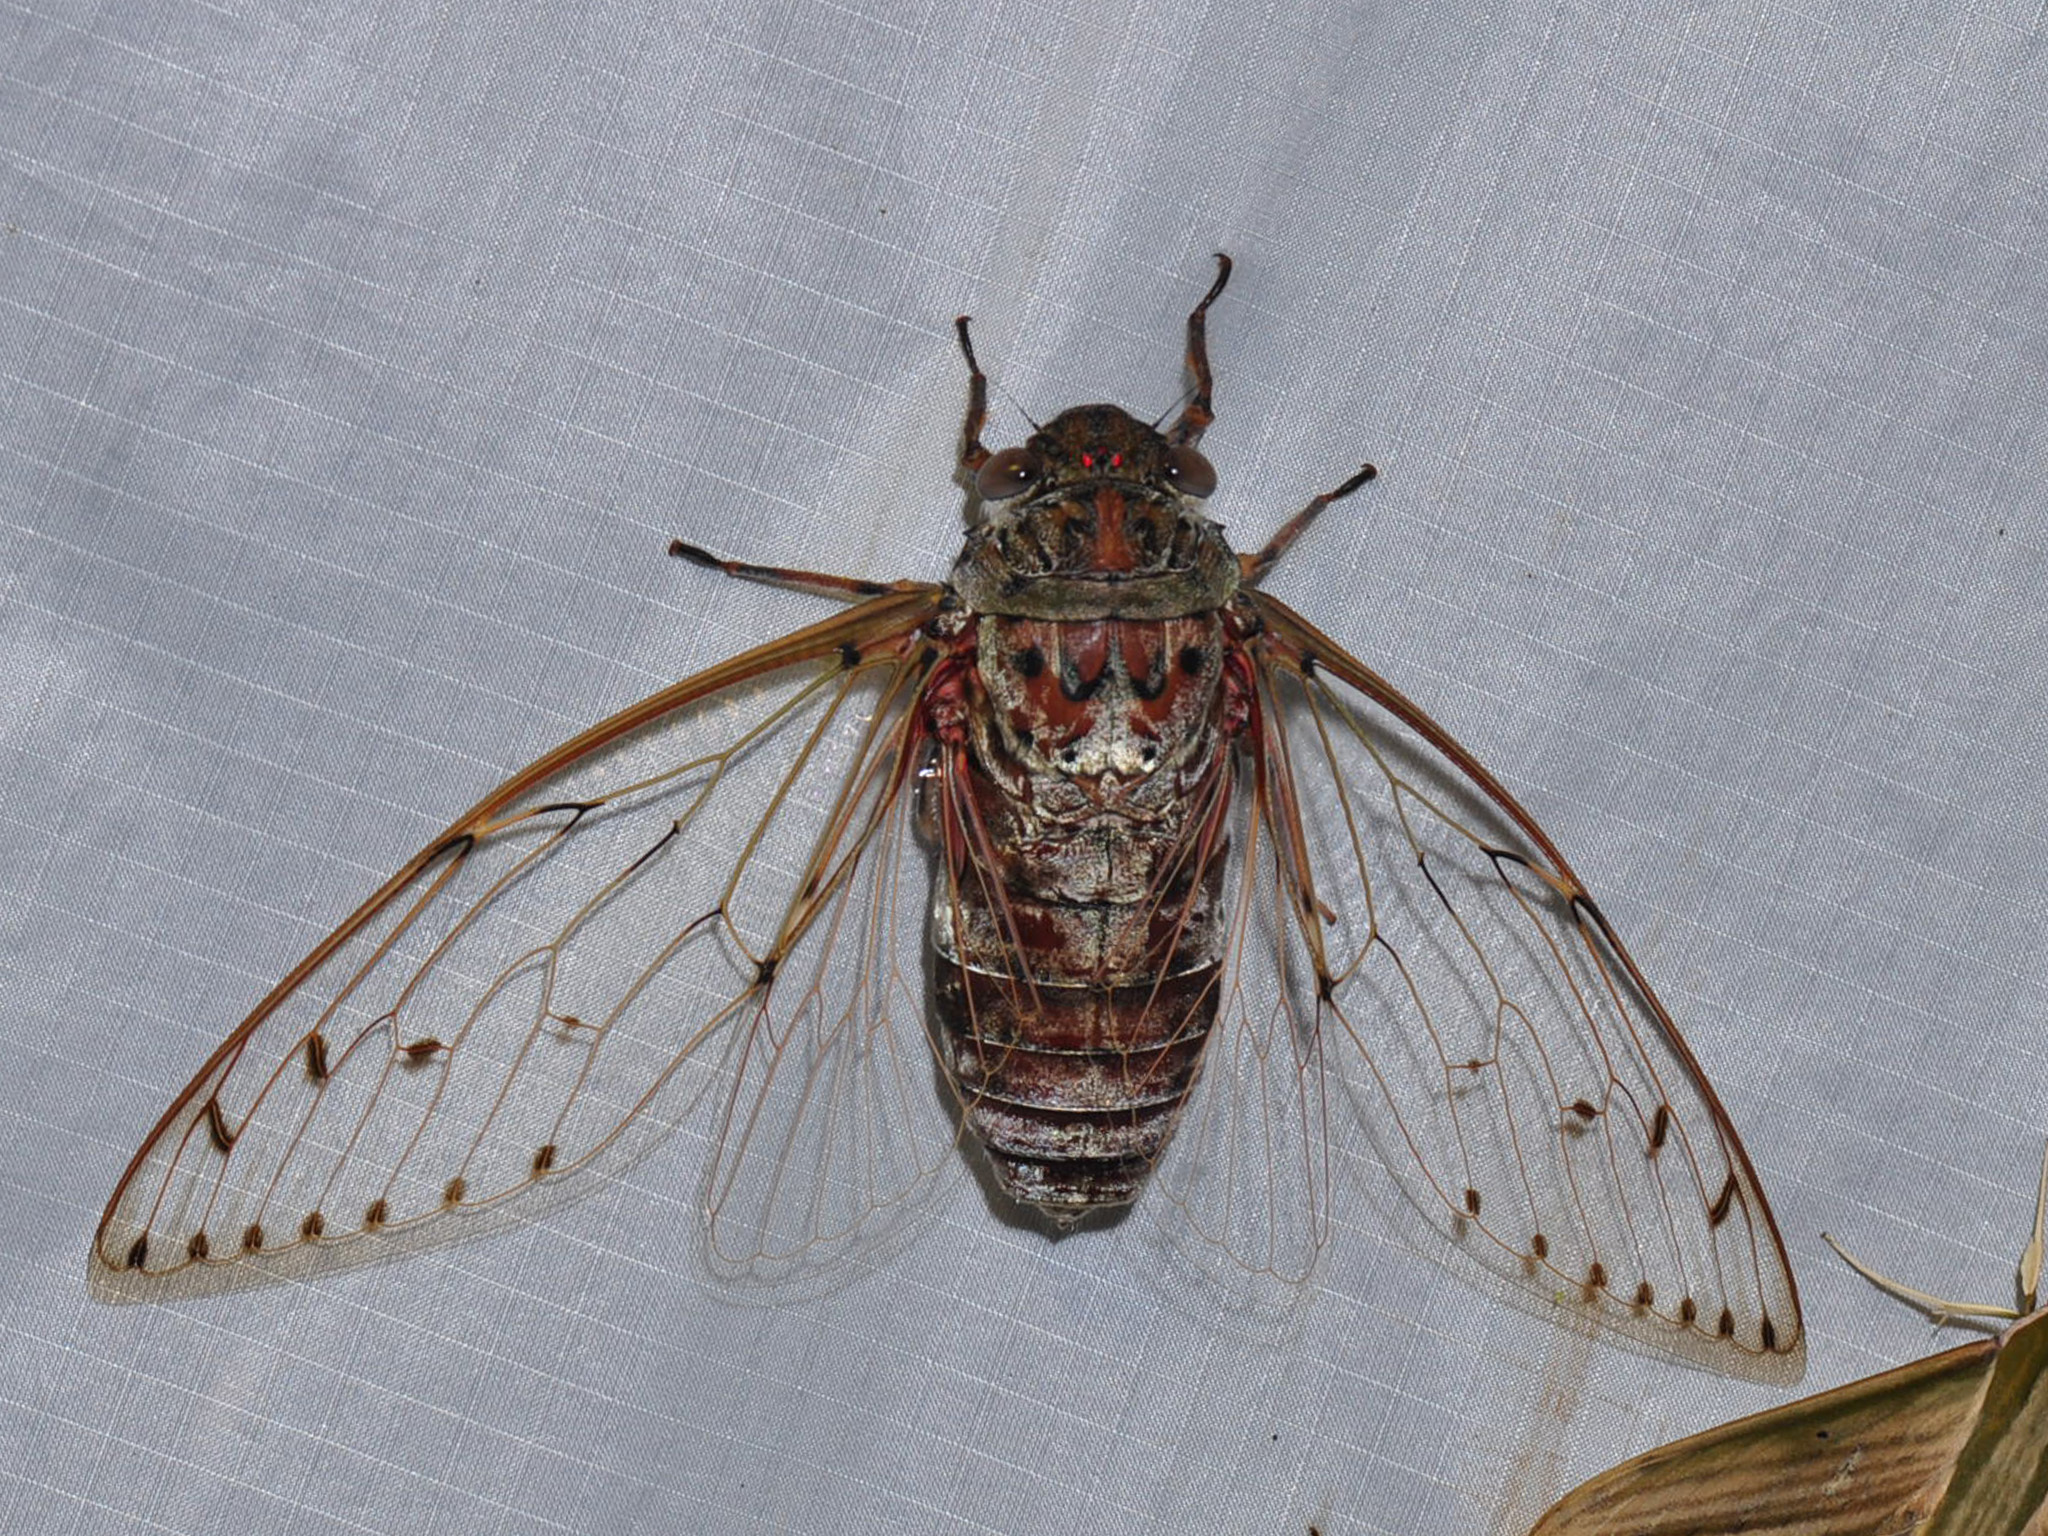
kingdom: Animalia
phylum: Arthropoda
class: Insecta
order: Hemiptera
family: Cicadidae
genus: Megapomponia
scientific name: Megapomponia imperatoria
